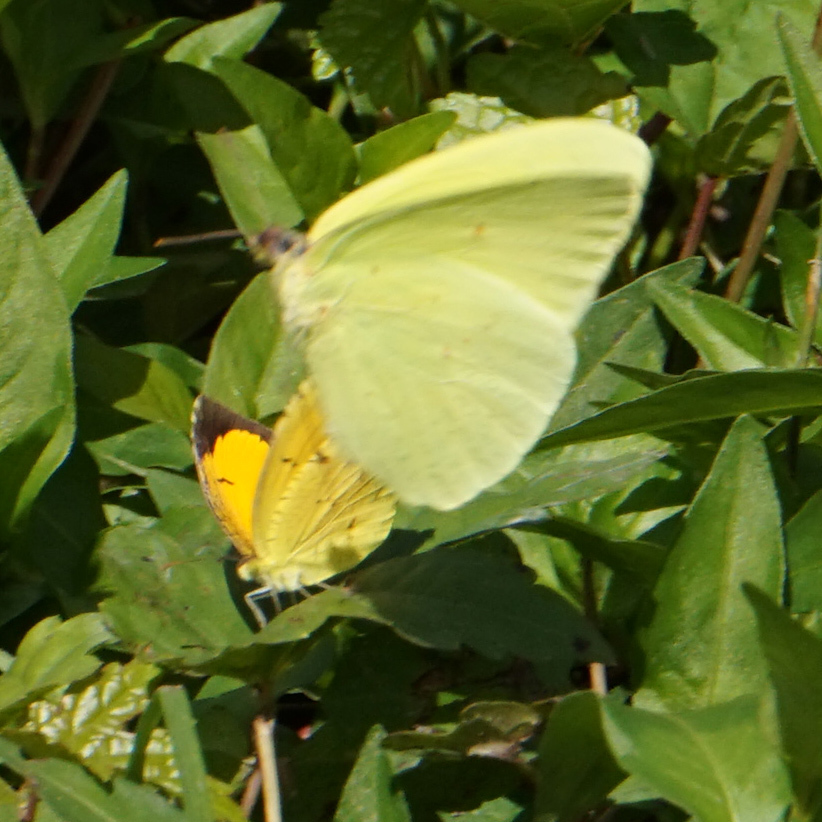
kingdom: Animalia
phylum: Arthropoda
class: Insecta
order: Lepidoptera
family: Pieridae
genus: Abaeis
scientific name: Abaeis nicippe
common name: Sleepy orange
